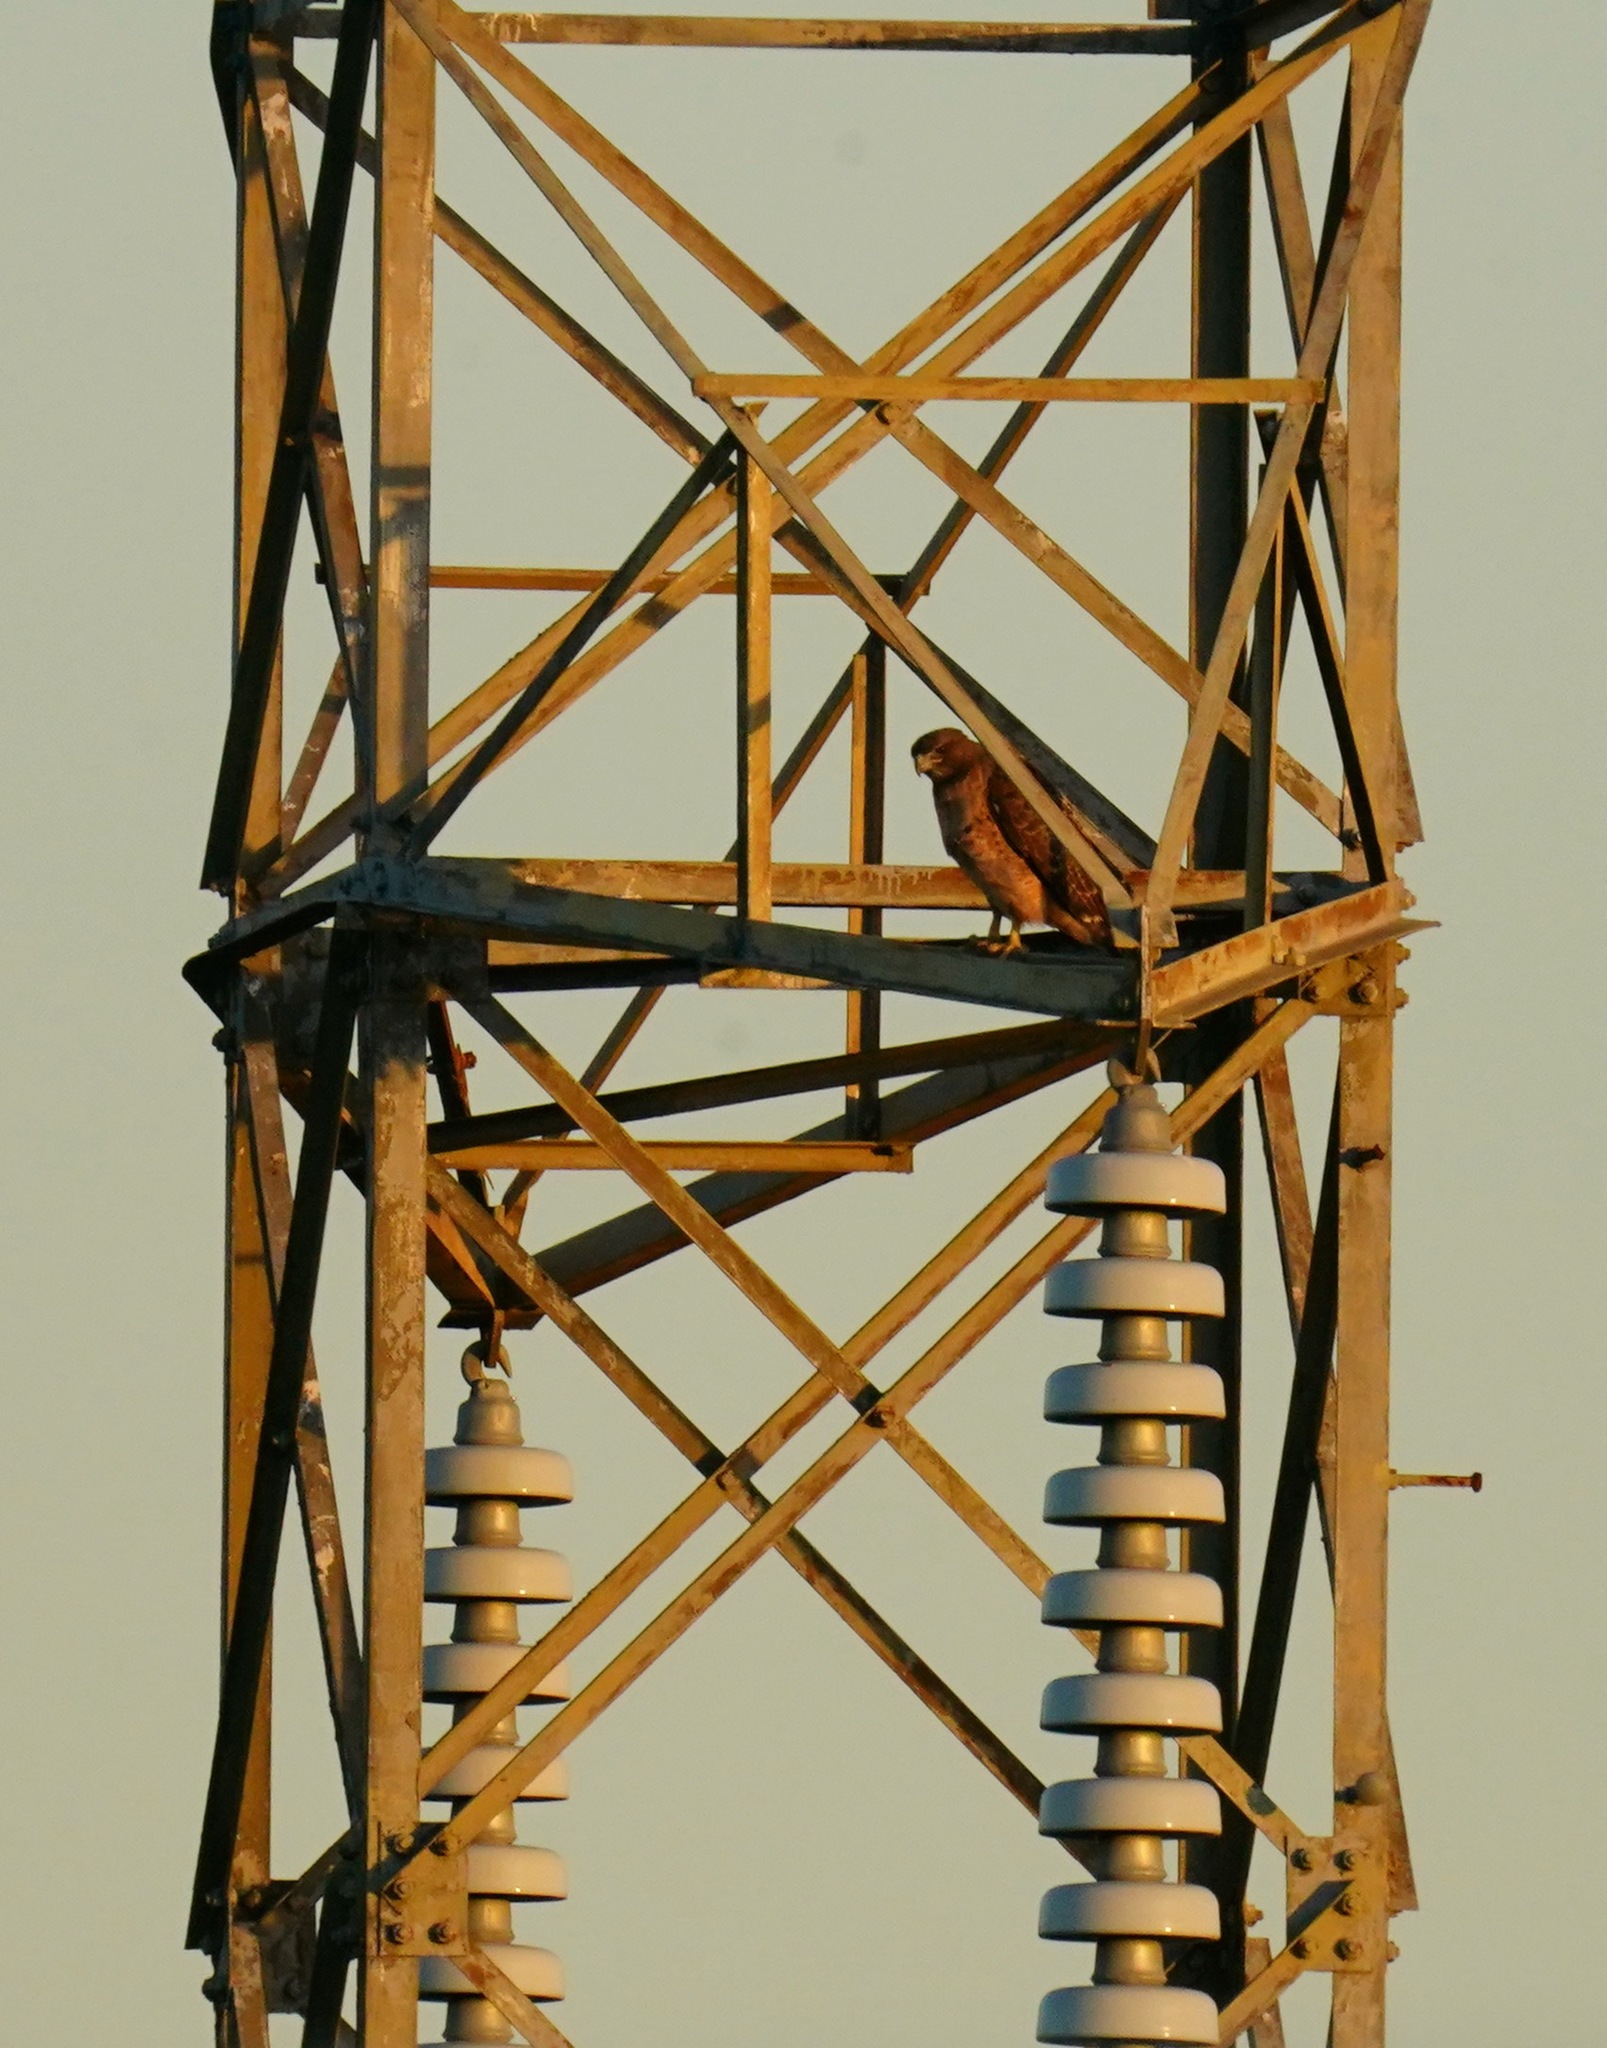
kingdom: Animalia
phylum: Chordata
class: Aves
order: Accipitriformes
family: Accipitridae
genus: Buteo
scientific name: Buteo jamaicensis
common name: Red-tailed hawk
